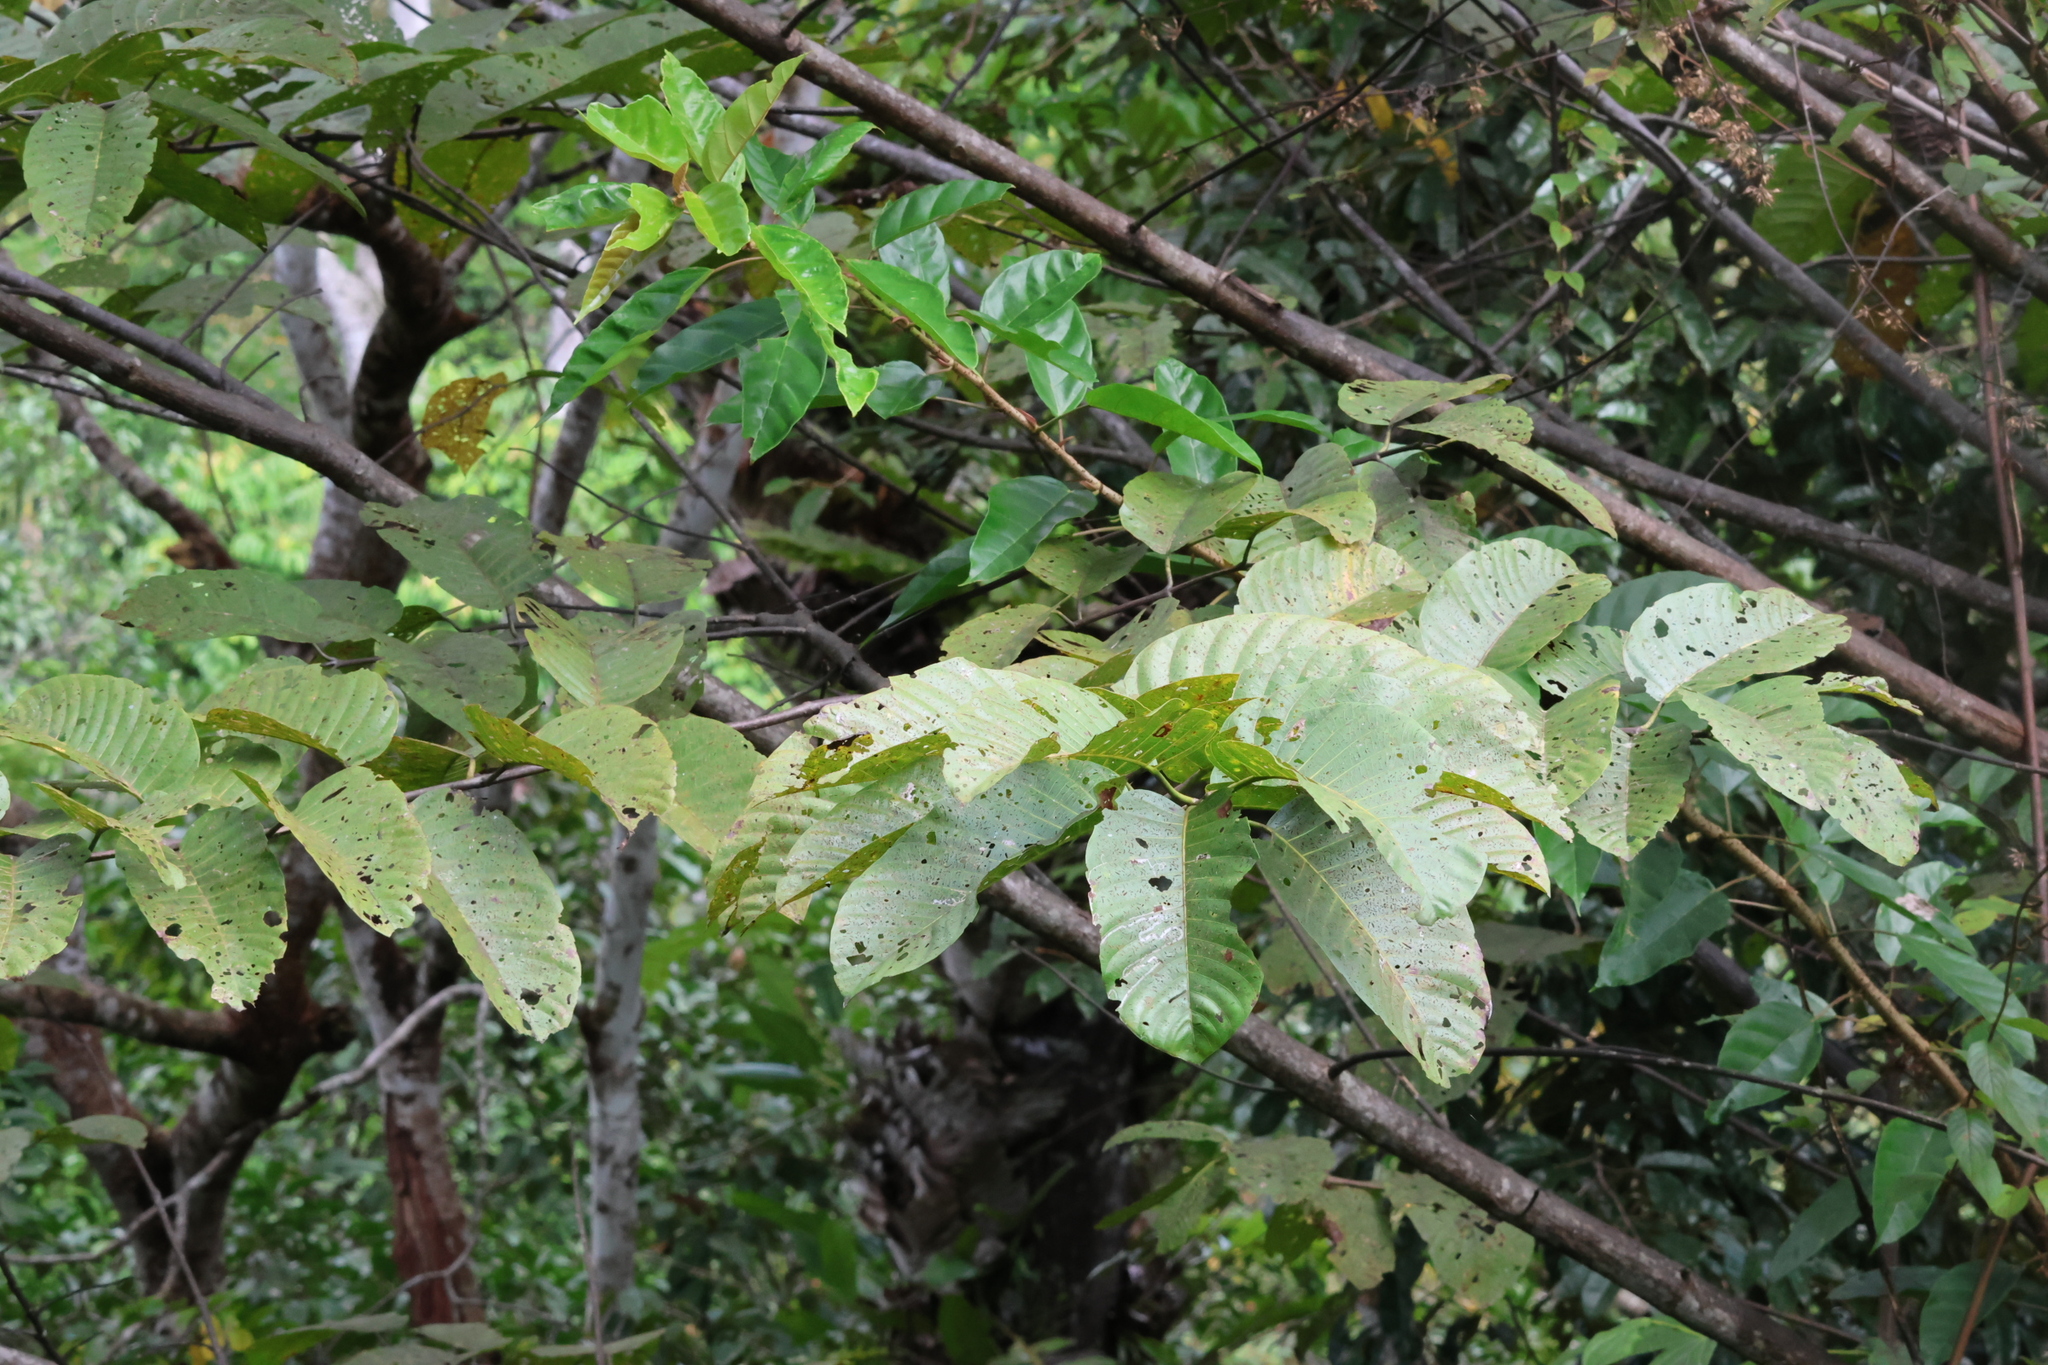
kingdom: Plantae
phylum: Tracheophyta
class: Magnoliopsida
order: Gentianales
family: Rubiaceae
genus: Neolamarckia
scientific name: Neolamarckia cadamba
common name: Leichhardt-pine
